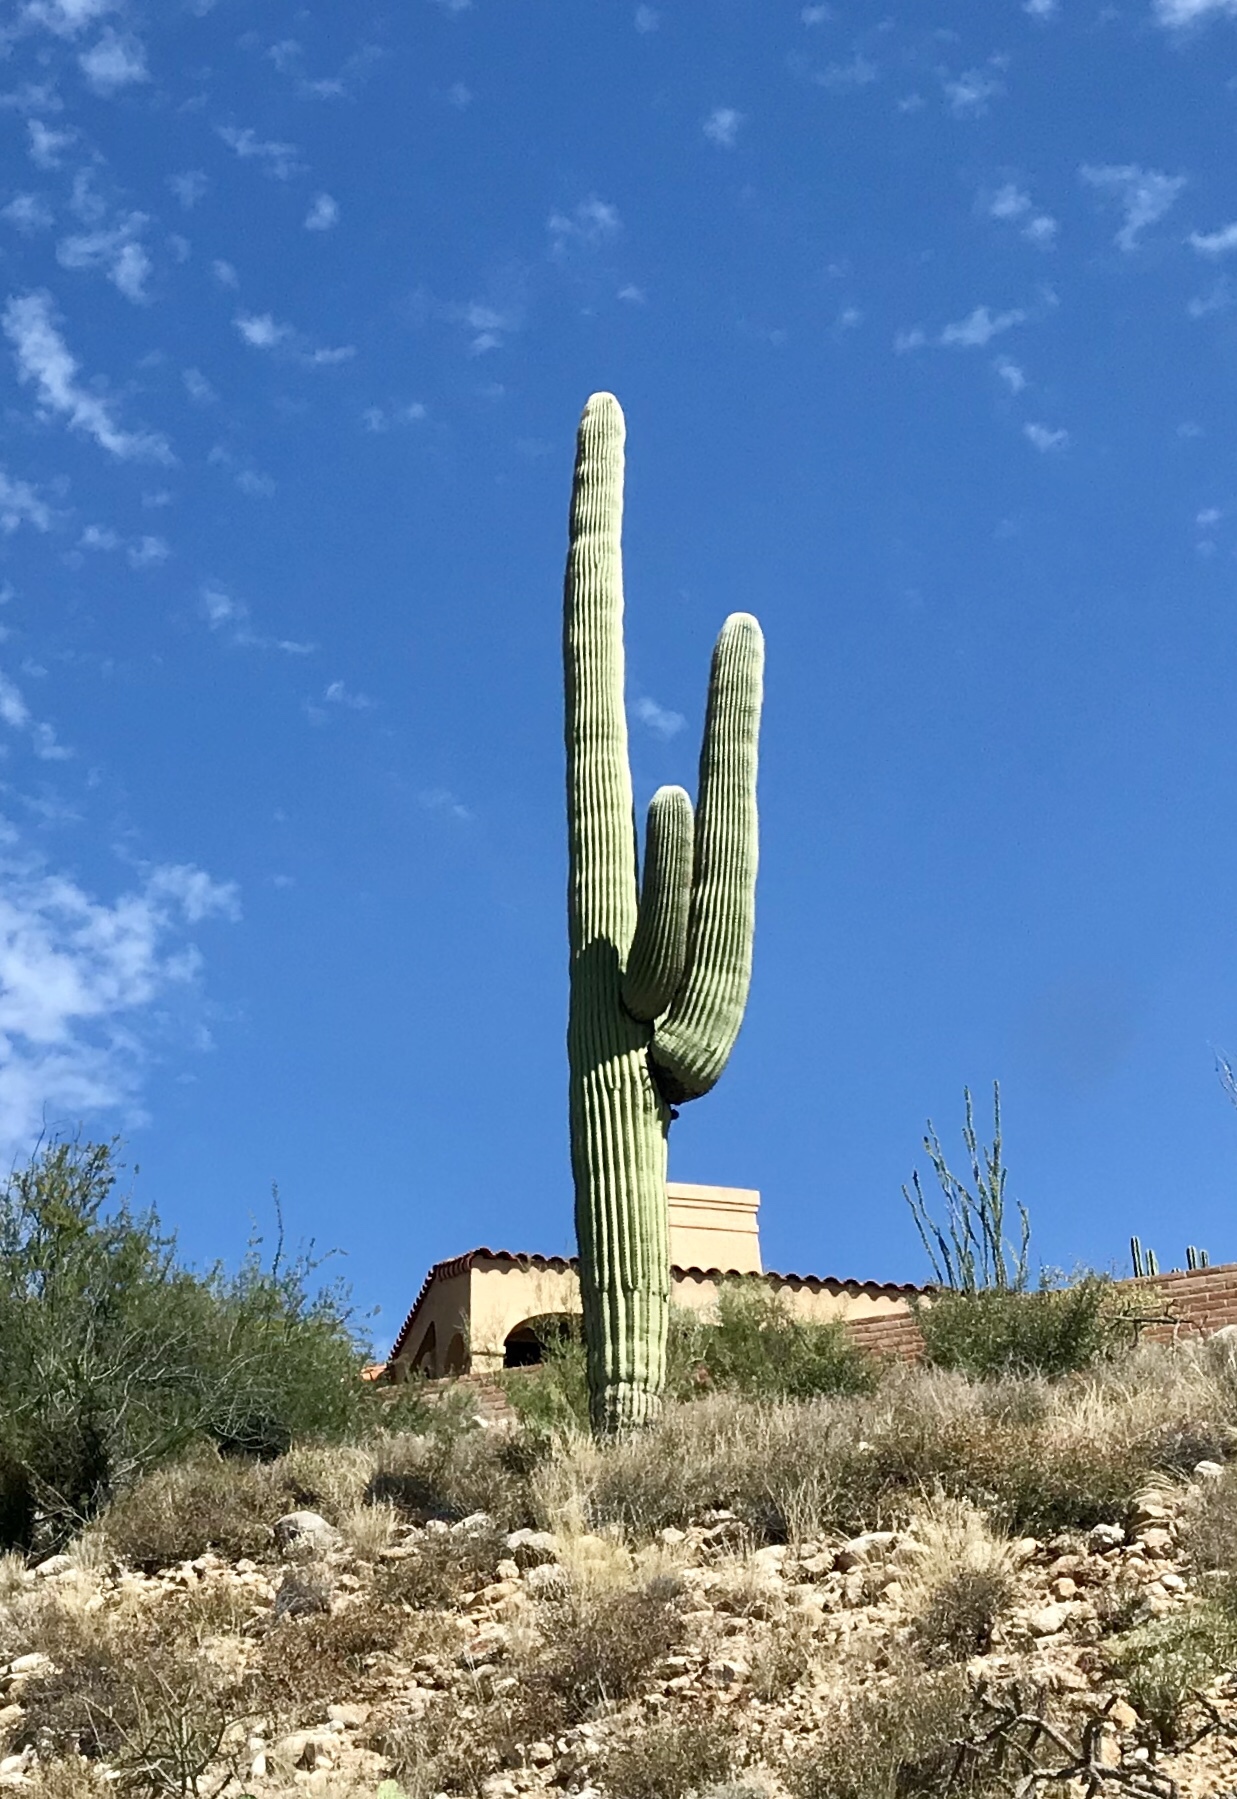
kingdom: Plantae
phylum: Tracheophyta
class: Magnoliopsida
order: Caryophyllales
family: Cactaceae
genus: Carnegiea
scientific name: Carnegiea gigantea
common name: Saguaro
